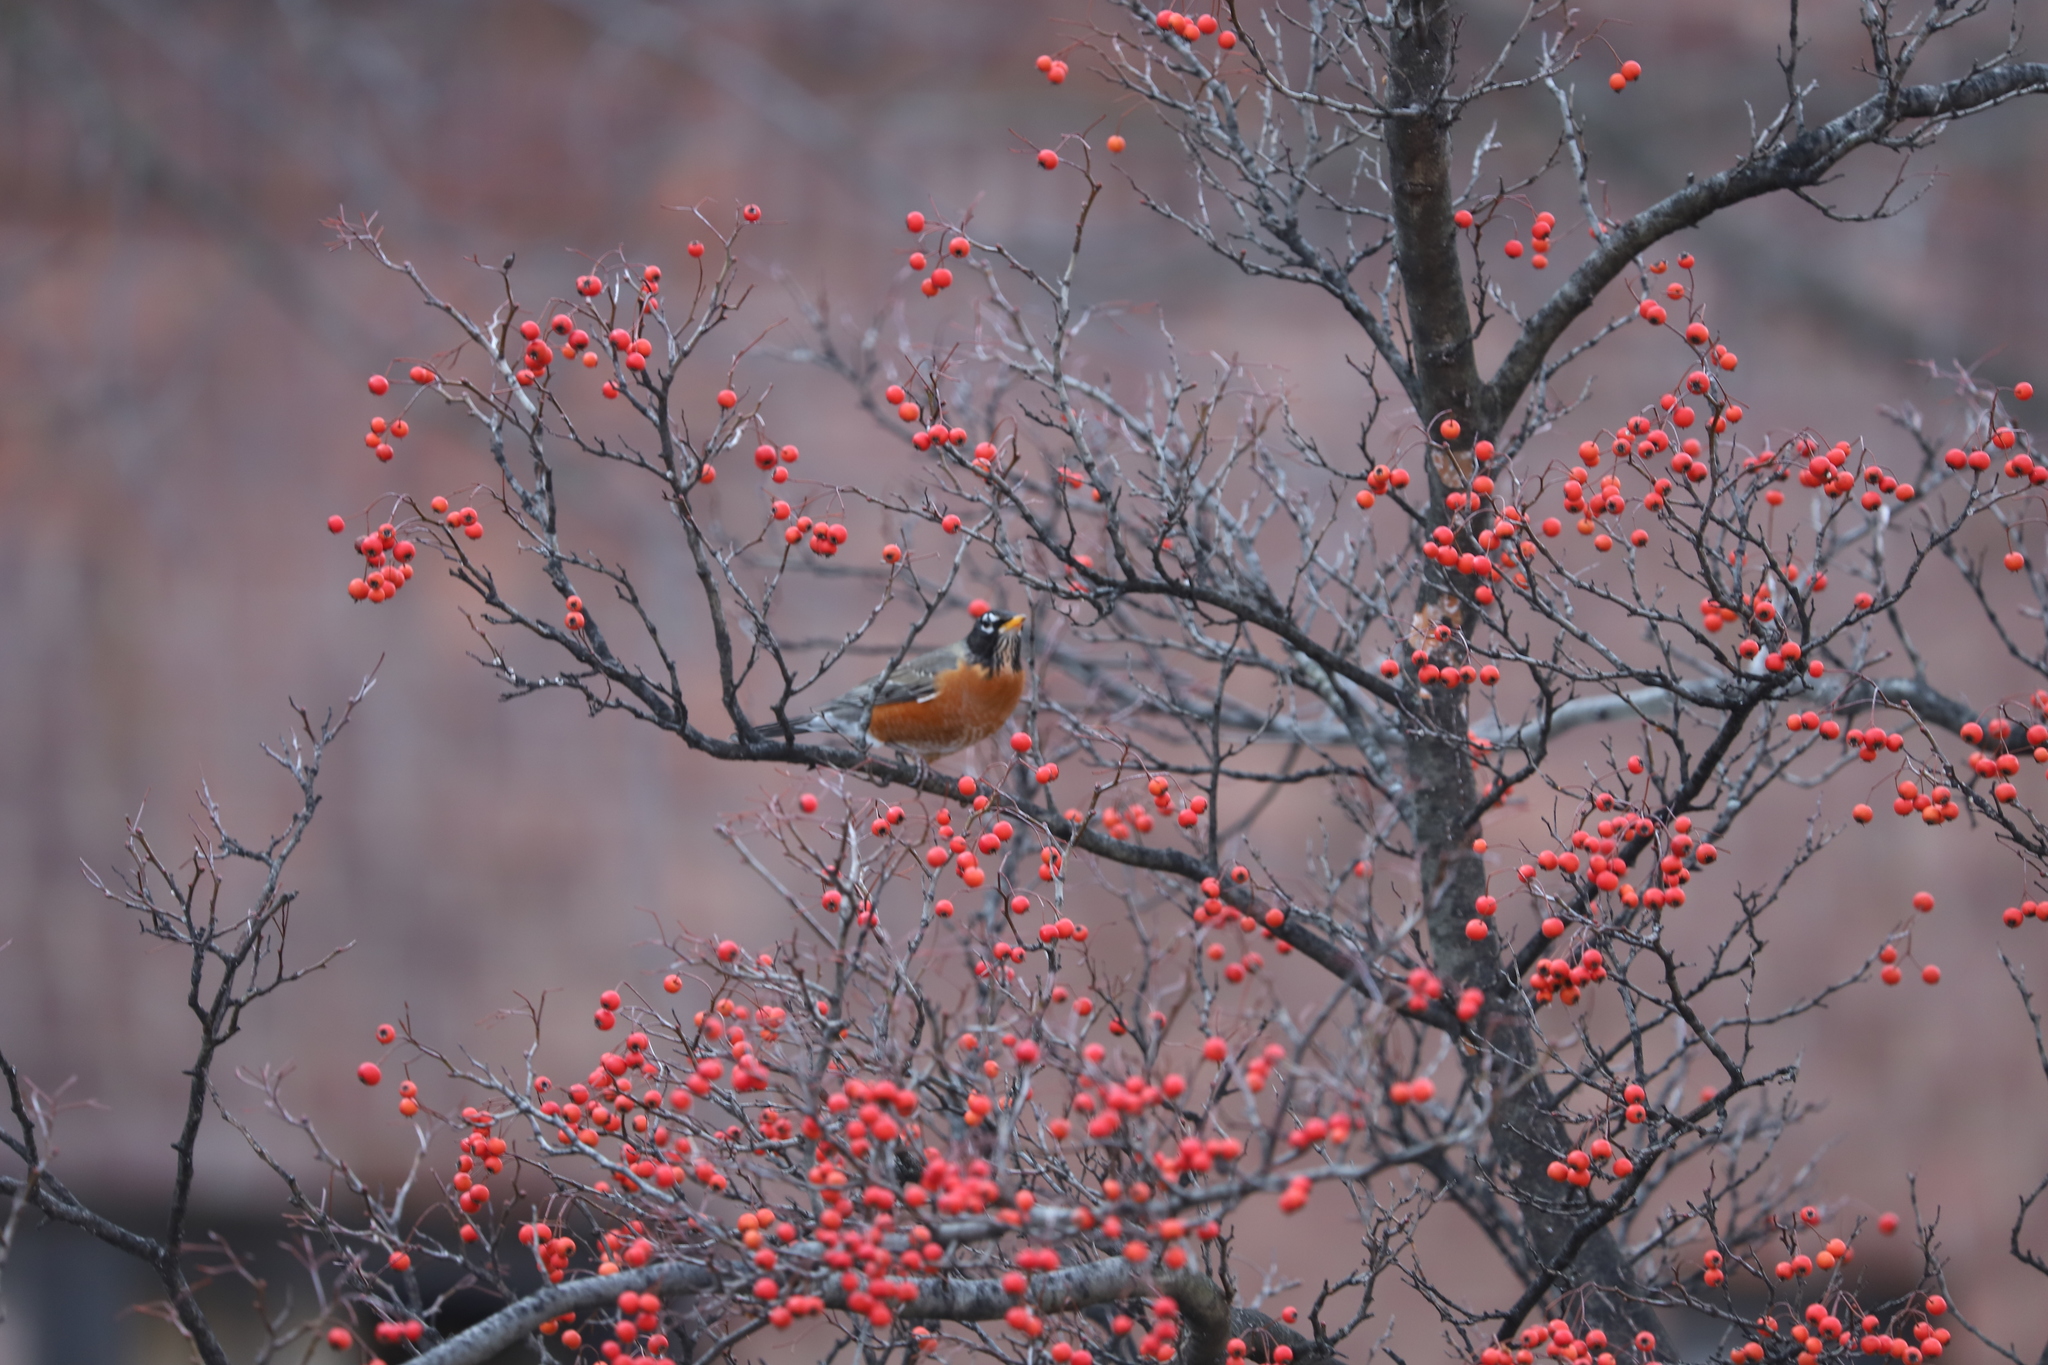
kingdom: Animalia
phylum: Chordata
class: Aves
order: Passeriformes
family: Turdidae
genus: Turdus
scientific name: Turdus migratorius
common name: American robin
